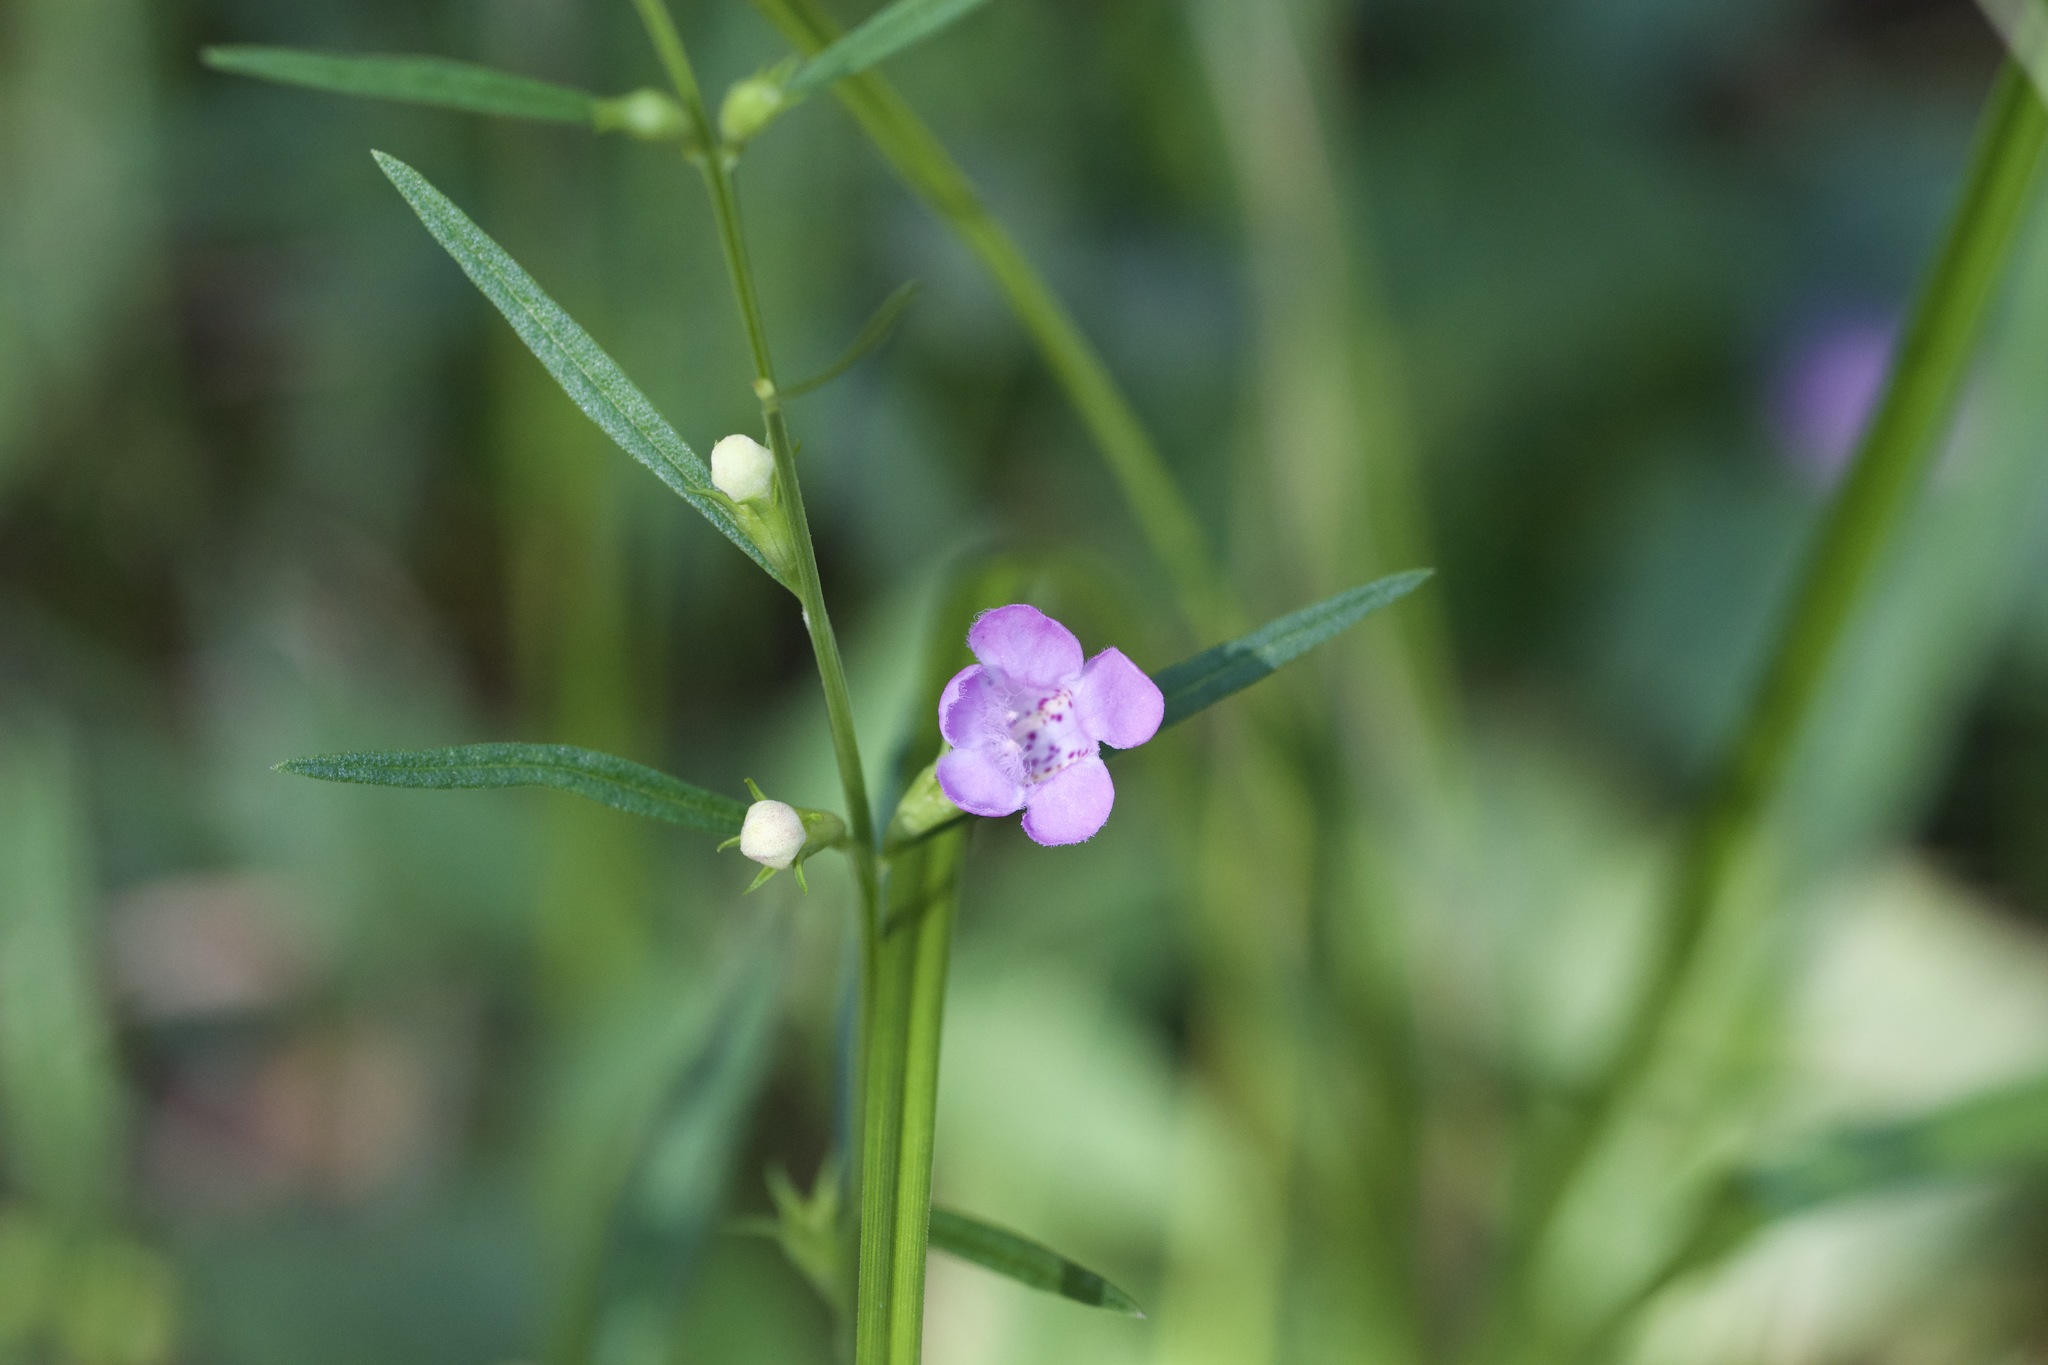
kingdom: Plantae
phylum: Tracheophyta
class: Magnoliopsida
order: Lamiales
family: Orobanchaceae
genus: Agalinis
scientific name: Agalinis purpurea
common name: Purple false foxglove
